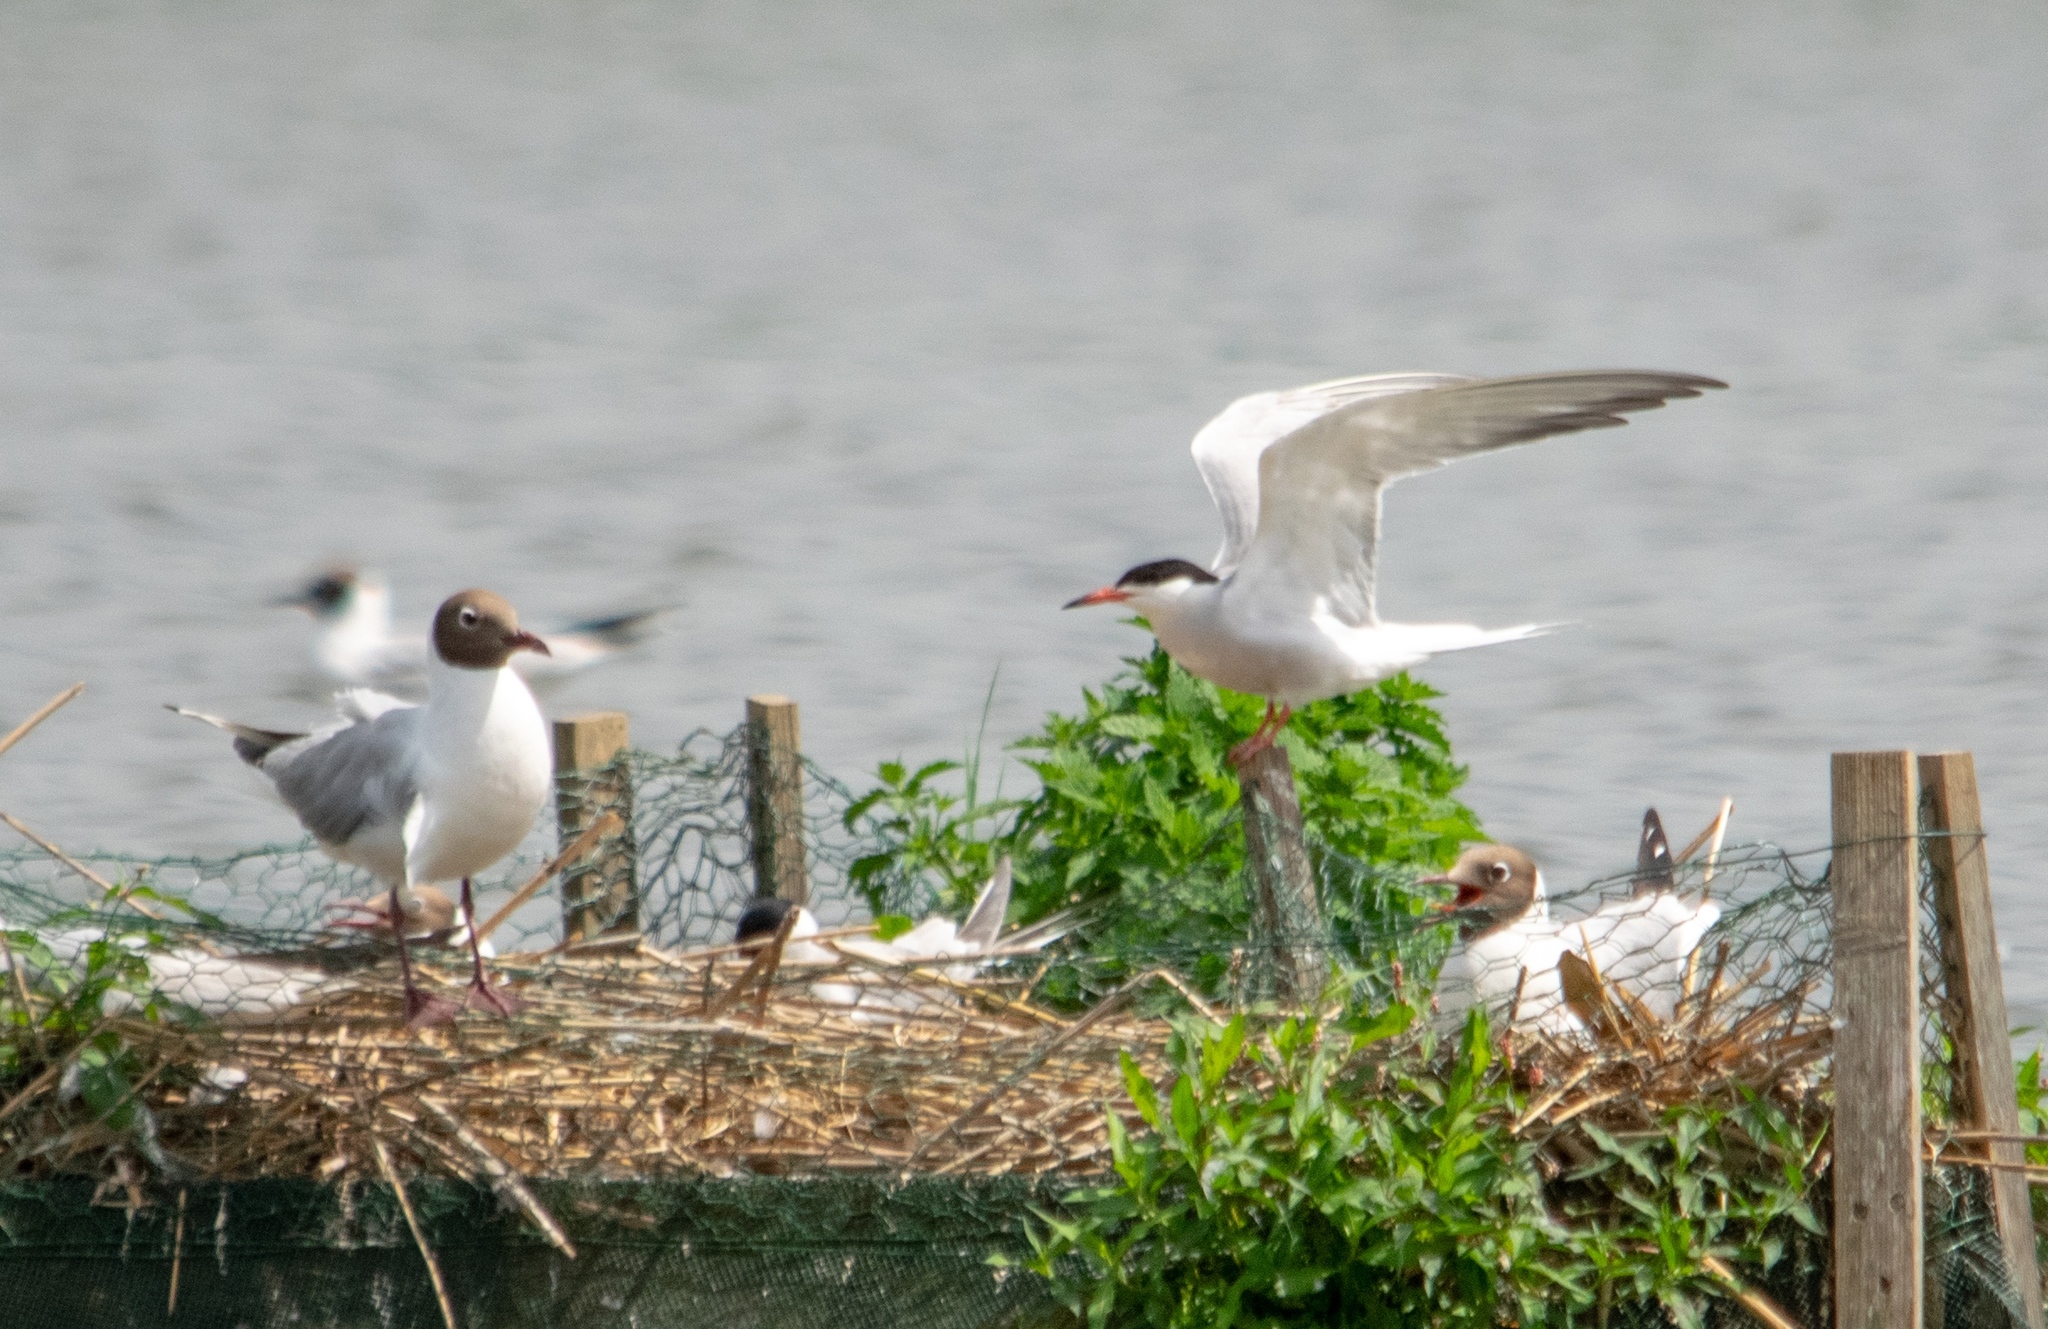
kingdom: Animalia
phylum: Chordata
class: Aves
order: Charadriiformes
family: Laridae
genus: Chroicocephalus
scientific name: Chroicocephalus ridibundus
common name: Black-headed gull
